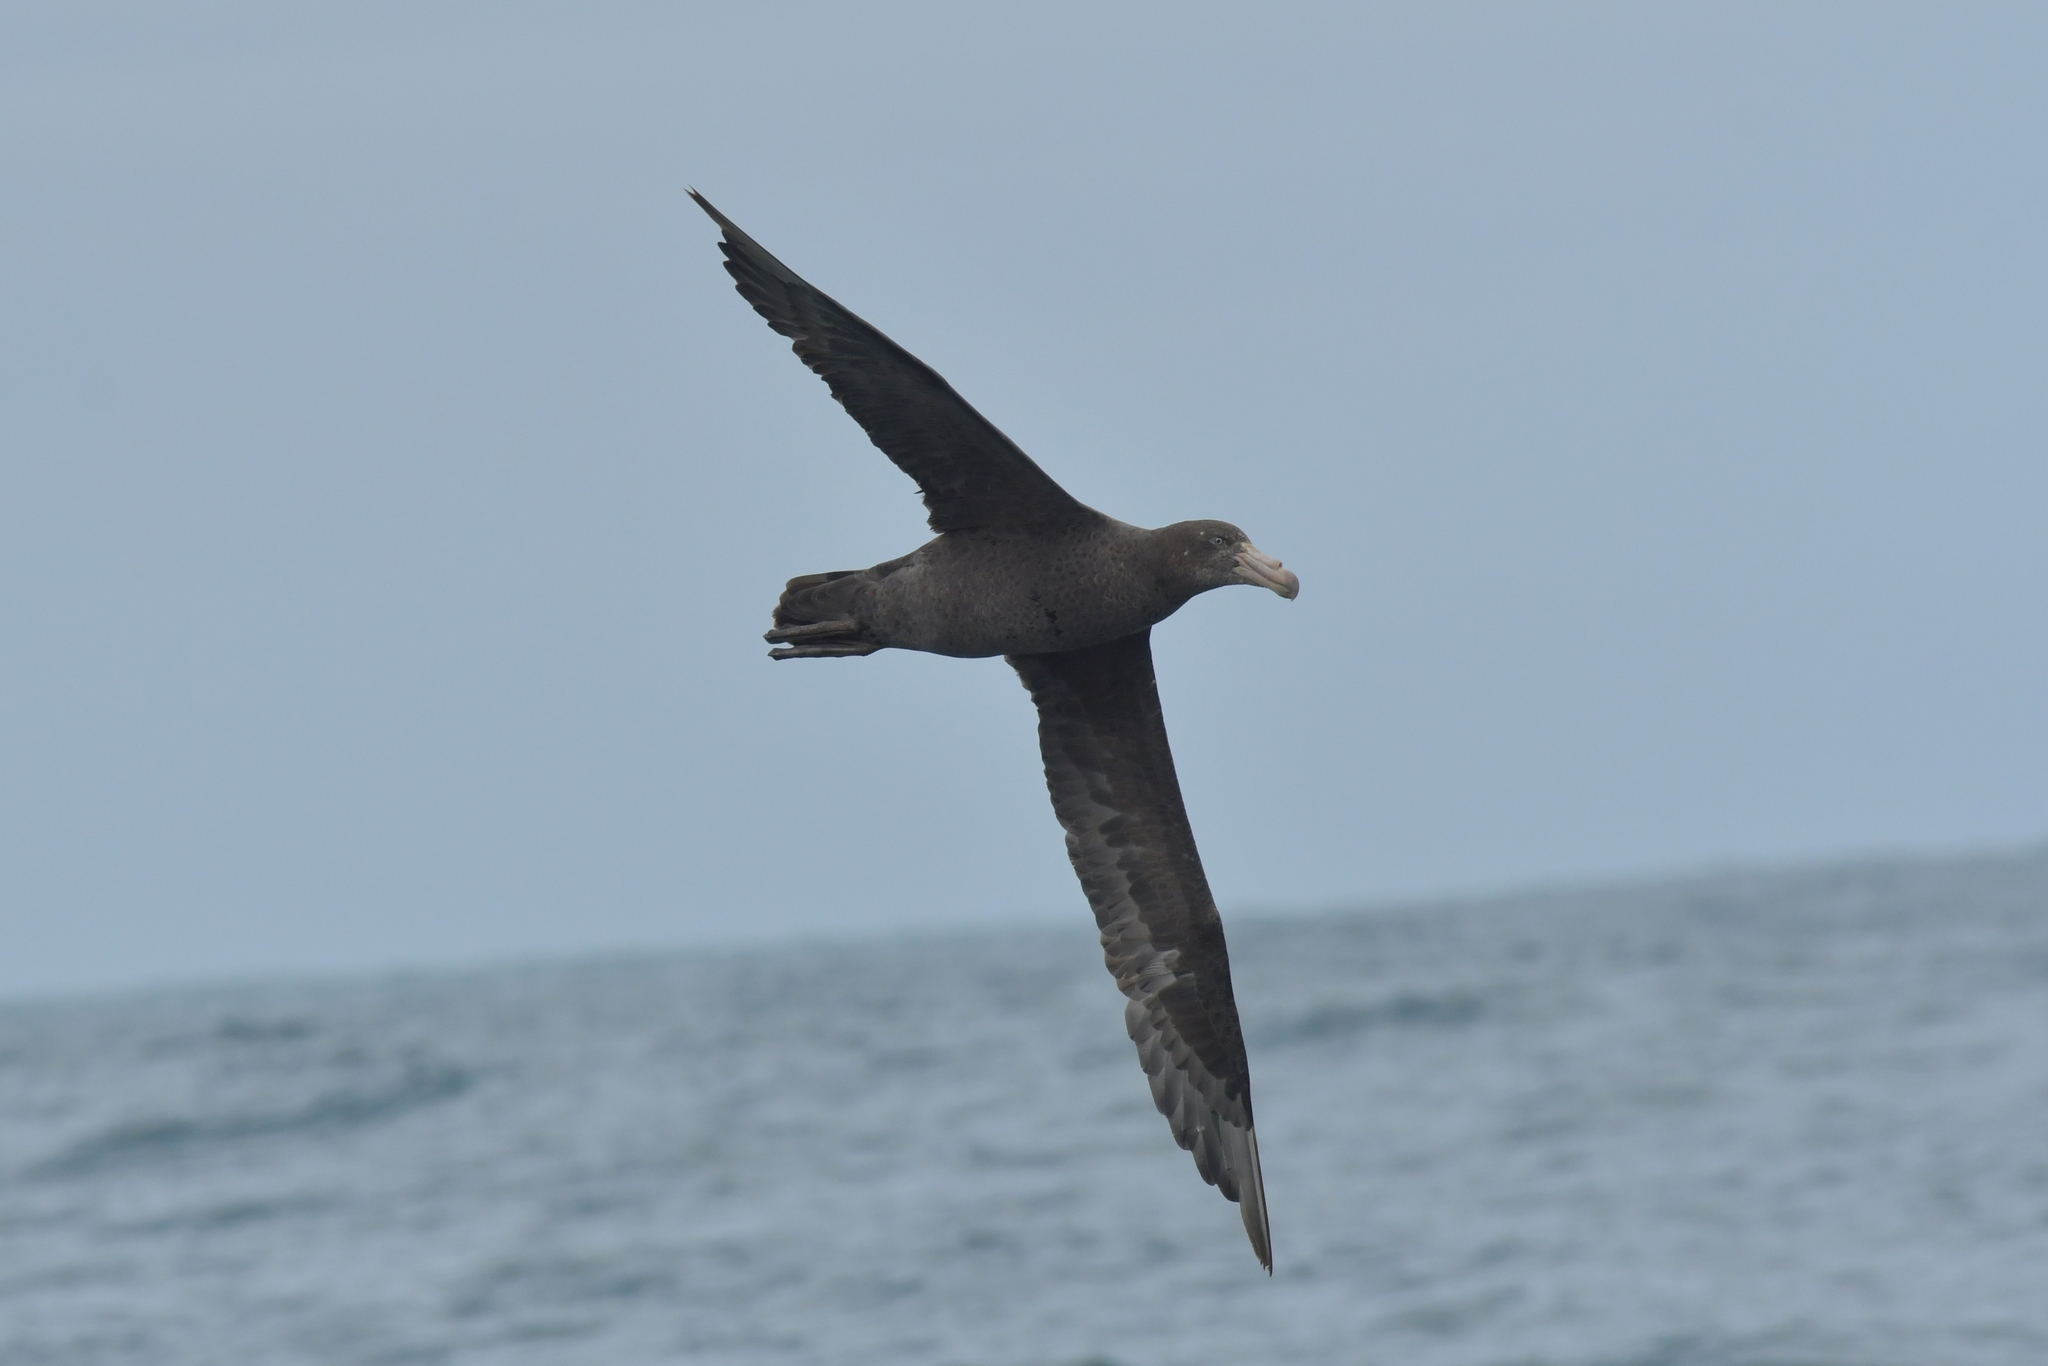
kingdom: Animalia
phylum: Chordata
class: Aves
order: Procellariiformes
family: Procellariidae
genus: Macronectes
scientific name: Macronectes halli
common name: Northern giant petrel
